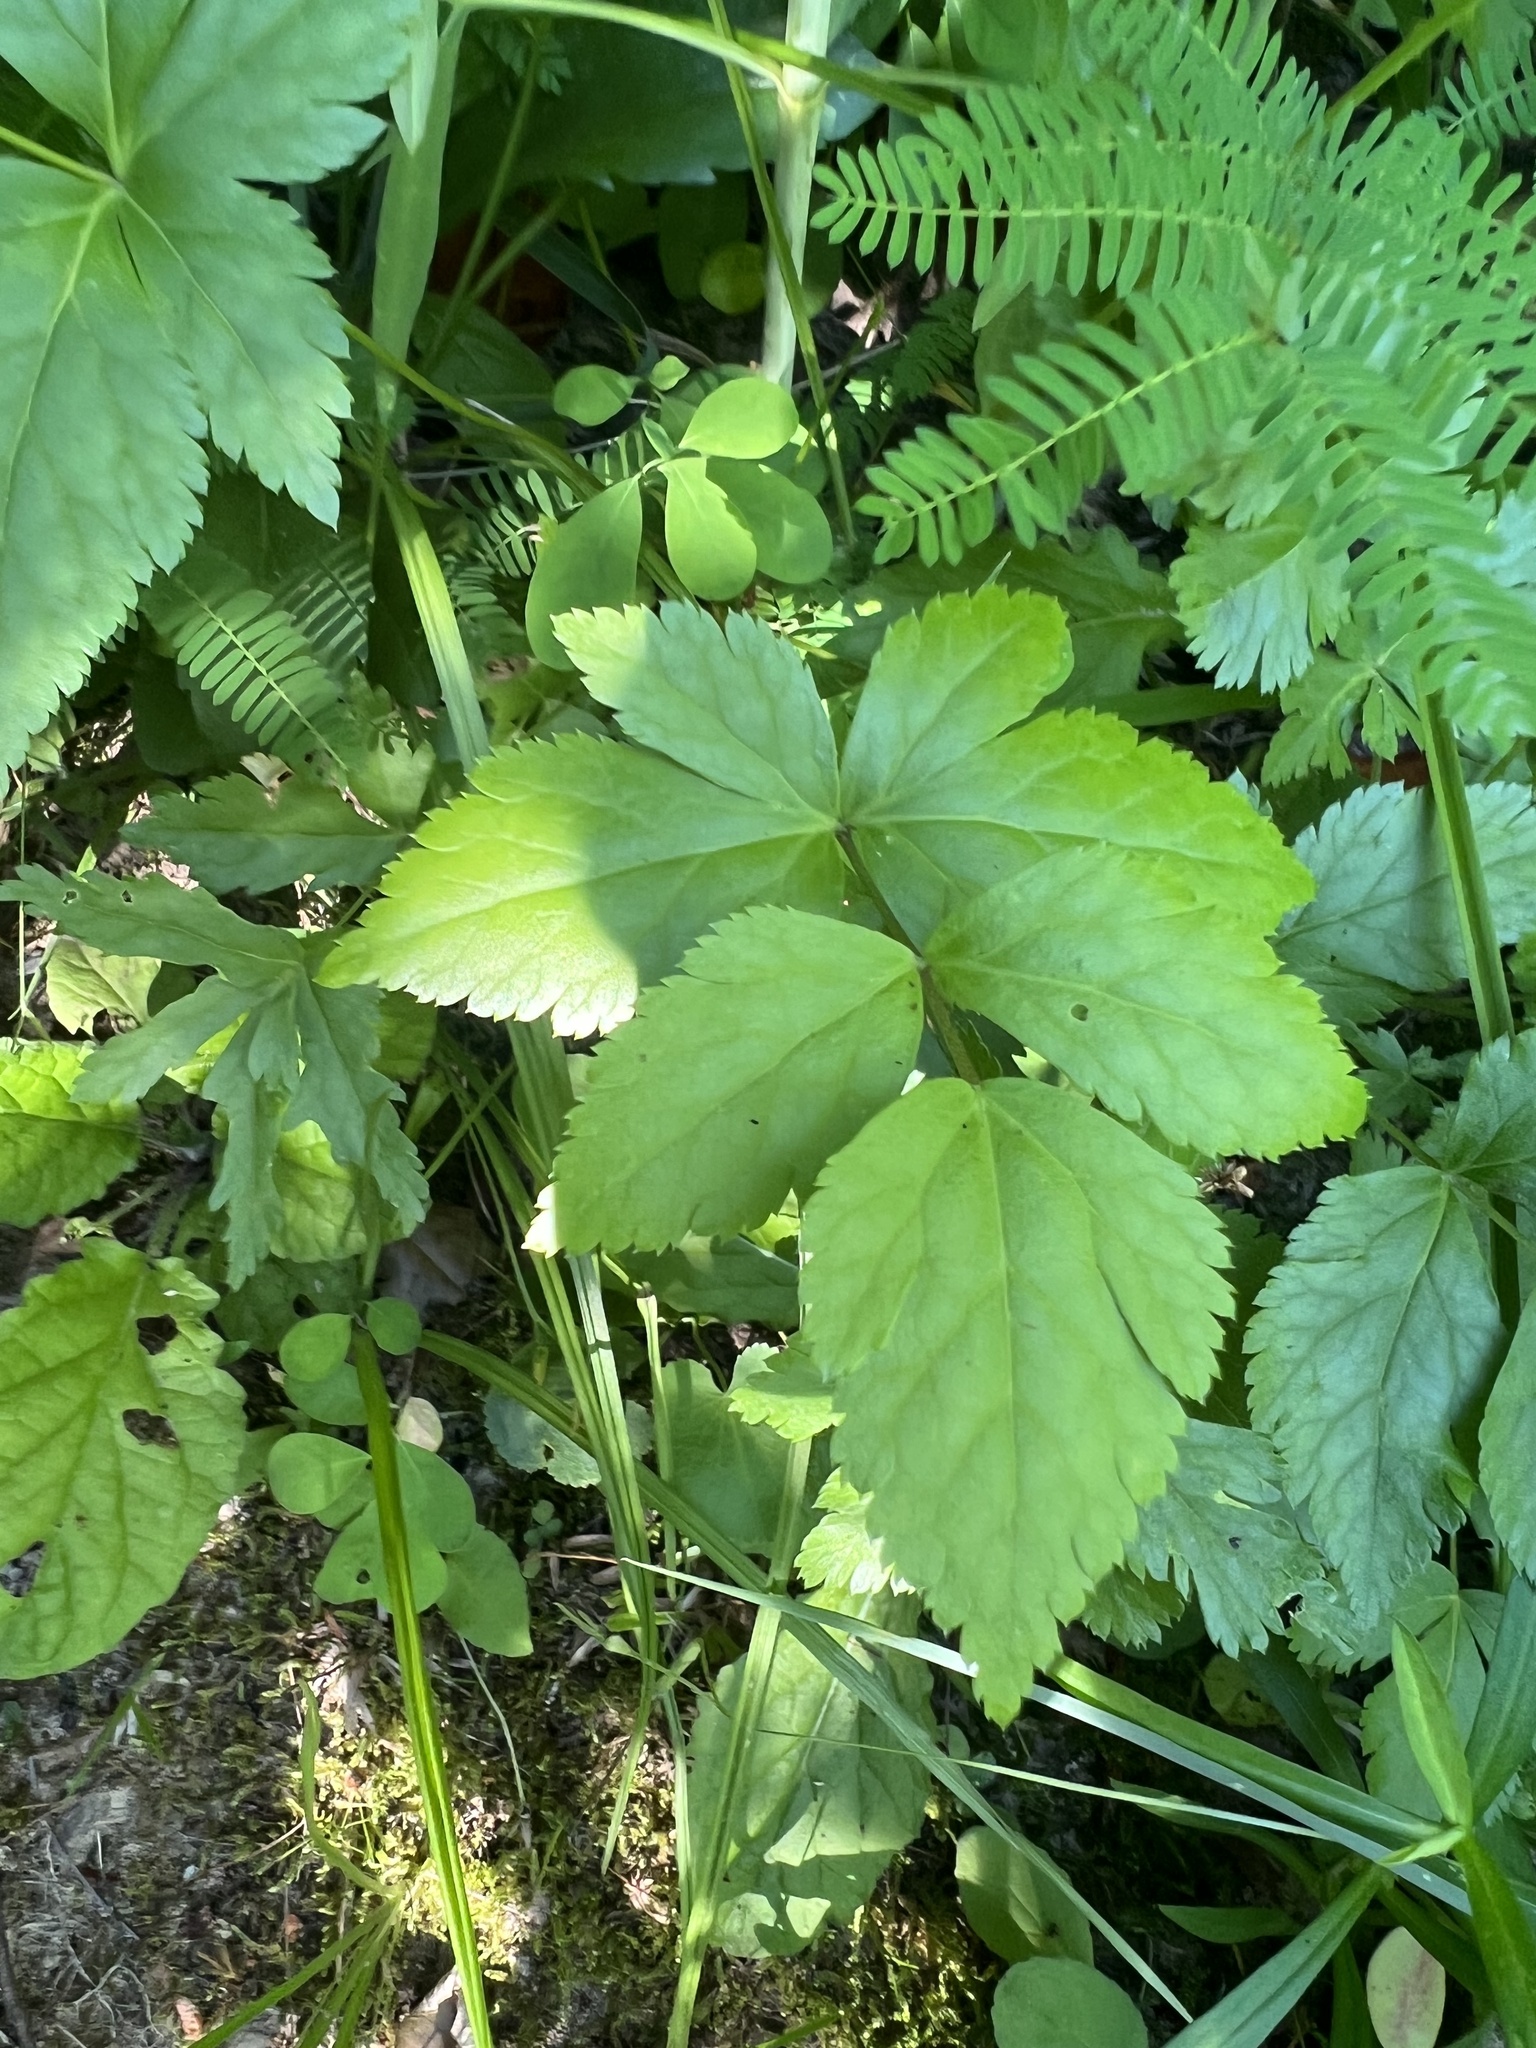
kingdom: Plantae
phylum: Tracheophyta
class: Magnoliopsida
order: Ranunculales
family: Ranunculaceae
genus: Xanthorhiza
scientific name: Xanthorhiza simplicissima
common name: Yellowroot
